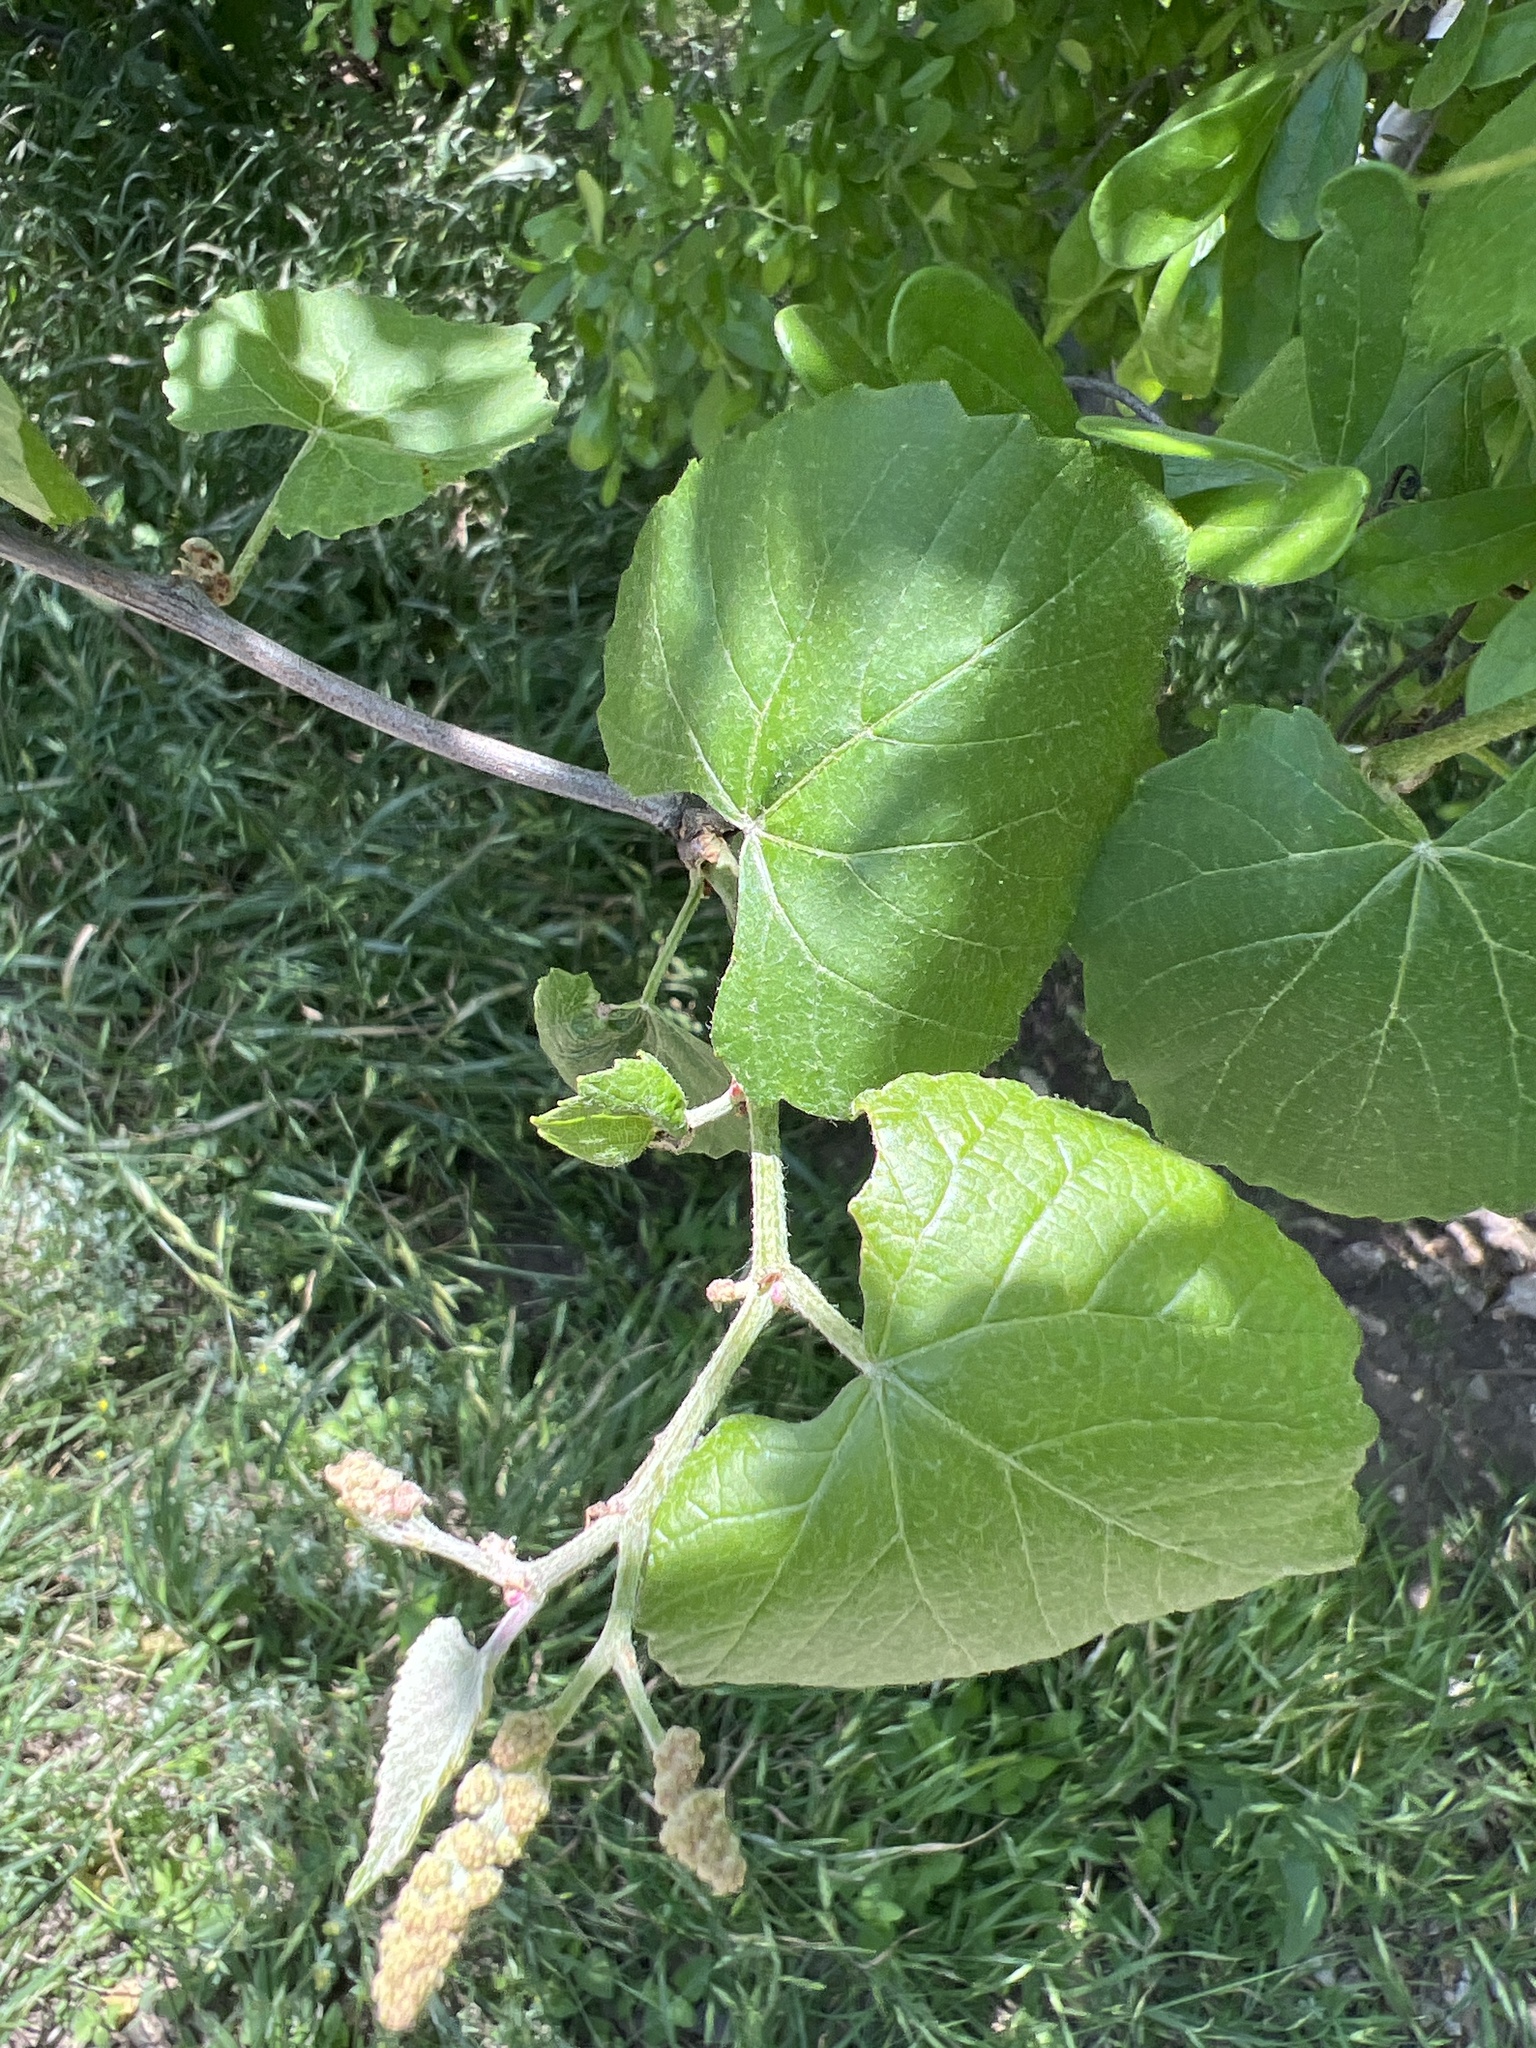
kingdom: Plantae
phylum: Tracheophyta
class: Magnoliopsida
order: Vitales
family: Vitaceae
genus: Vitis
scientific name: Vitis mustangensis
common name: Mustang grape
